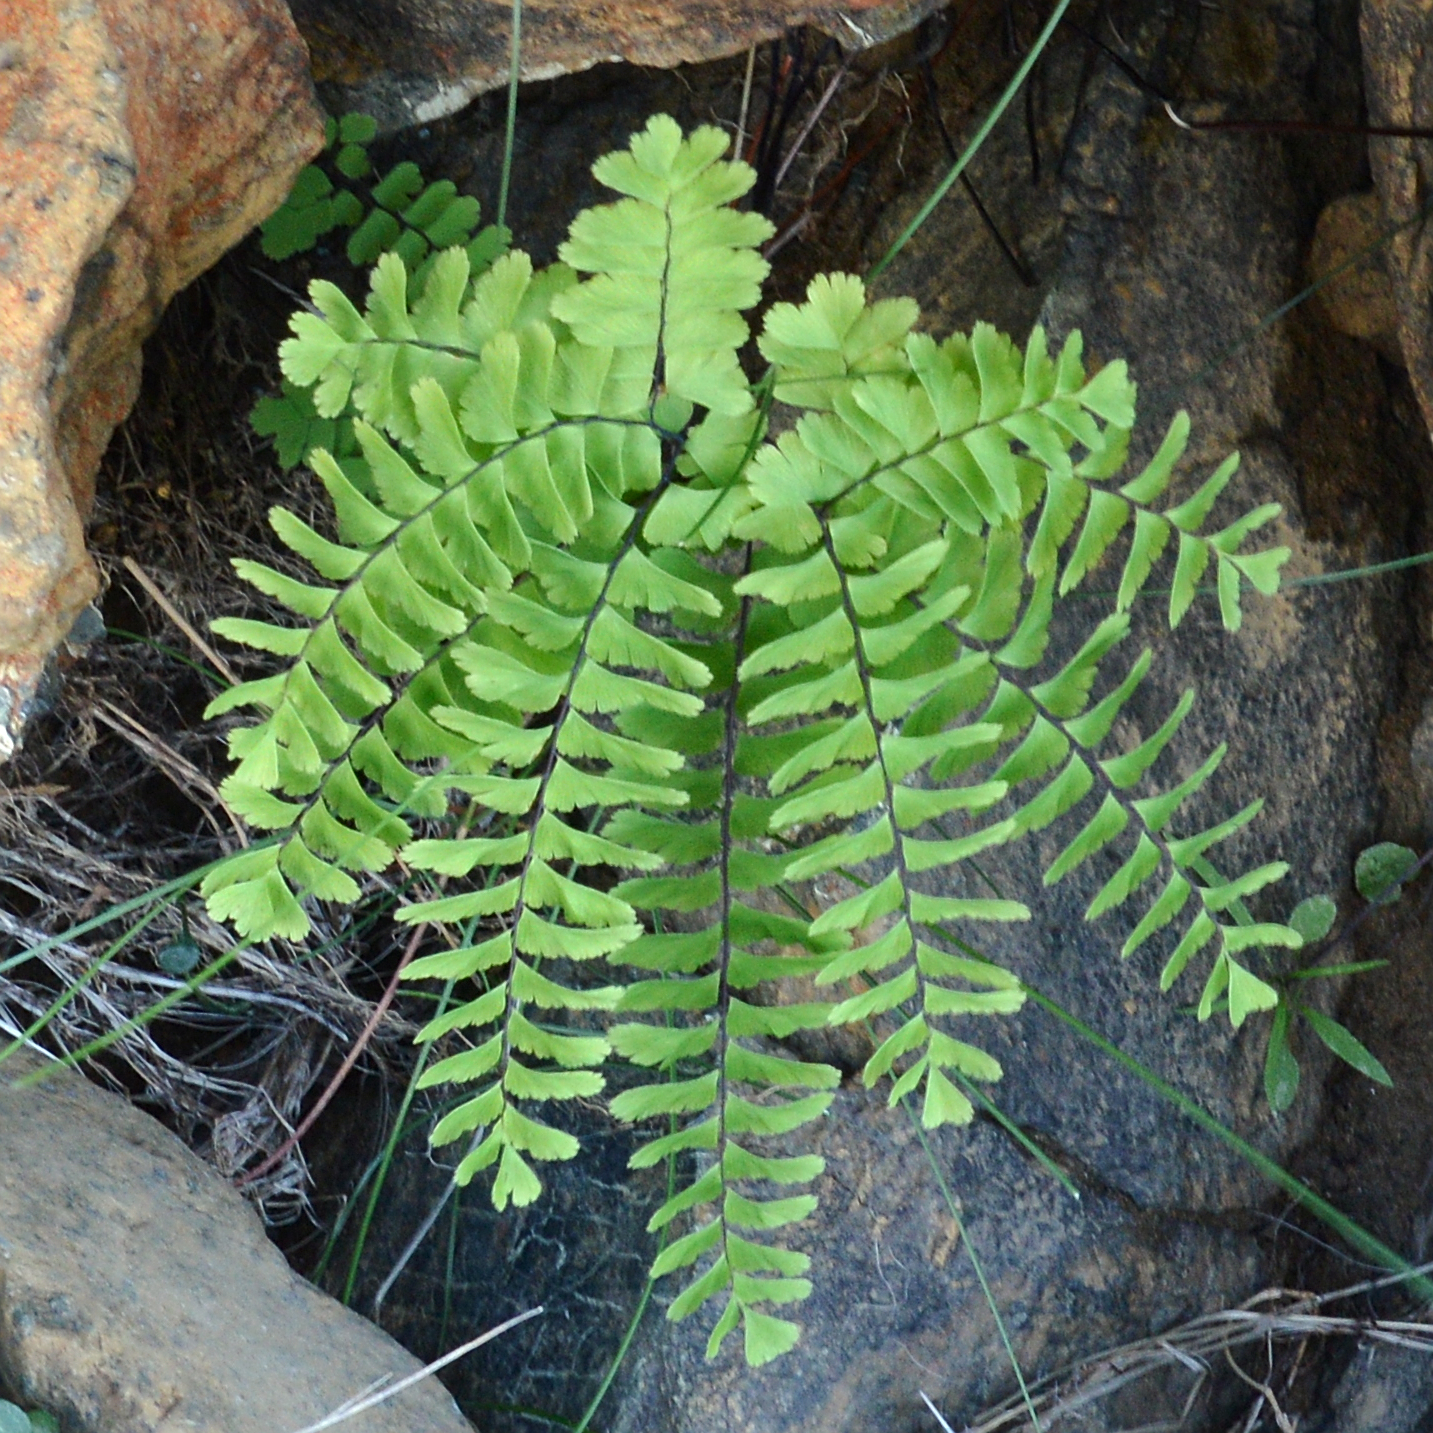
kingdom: Plantae
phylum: Tracheophyta
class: Polypodiopsida
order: Polypodiales
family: Pteridaceae
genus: Adiantum
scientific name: Adiantum aleuticum
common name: Aleutian maidenhair fern
